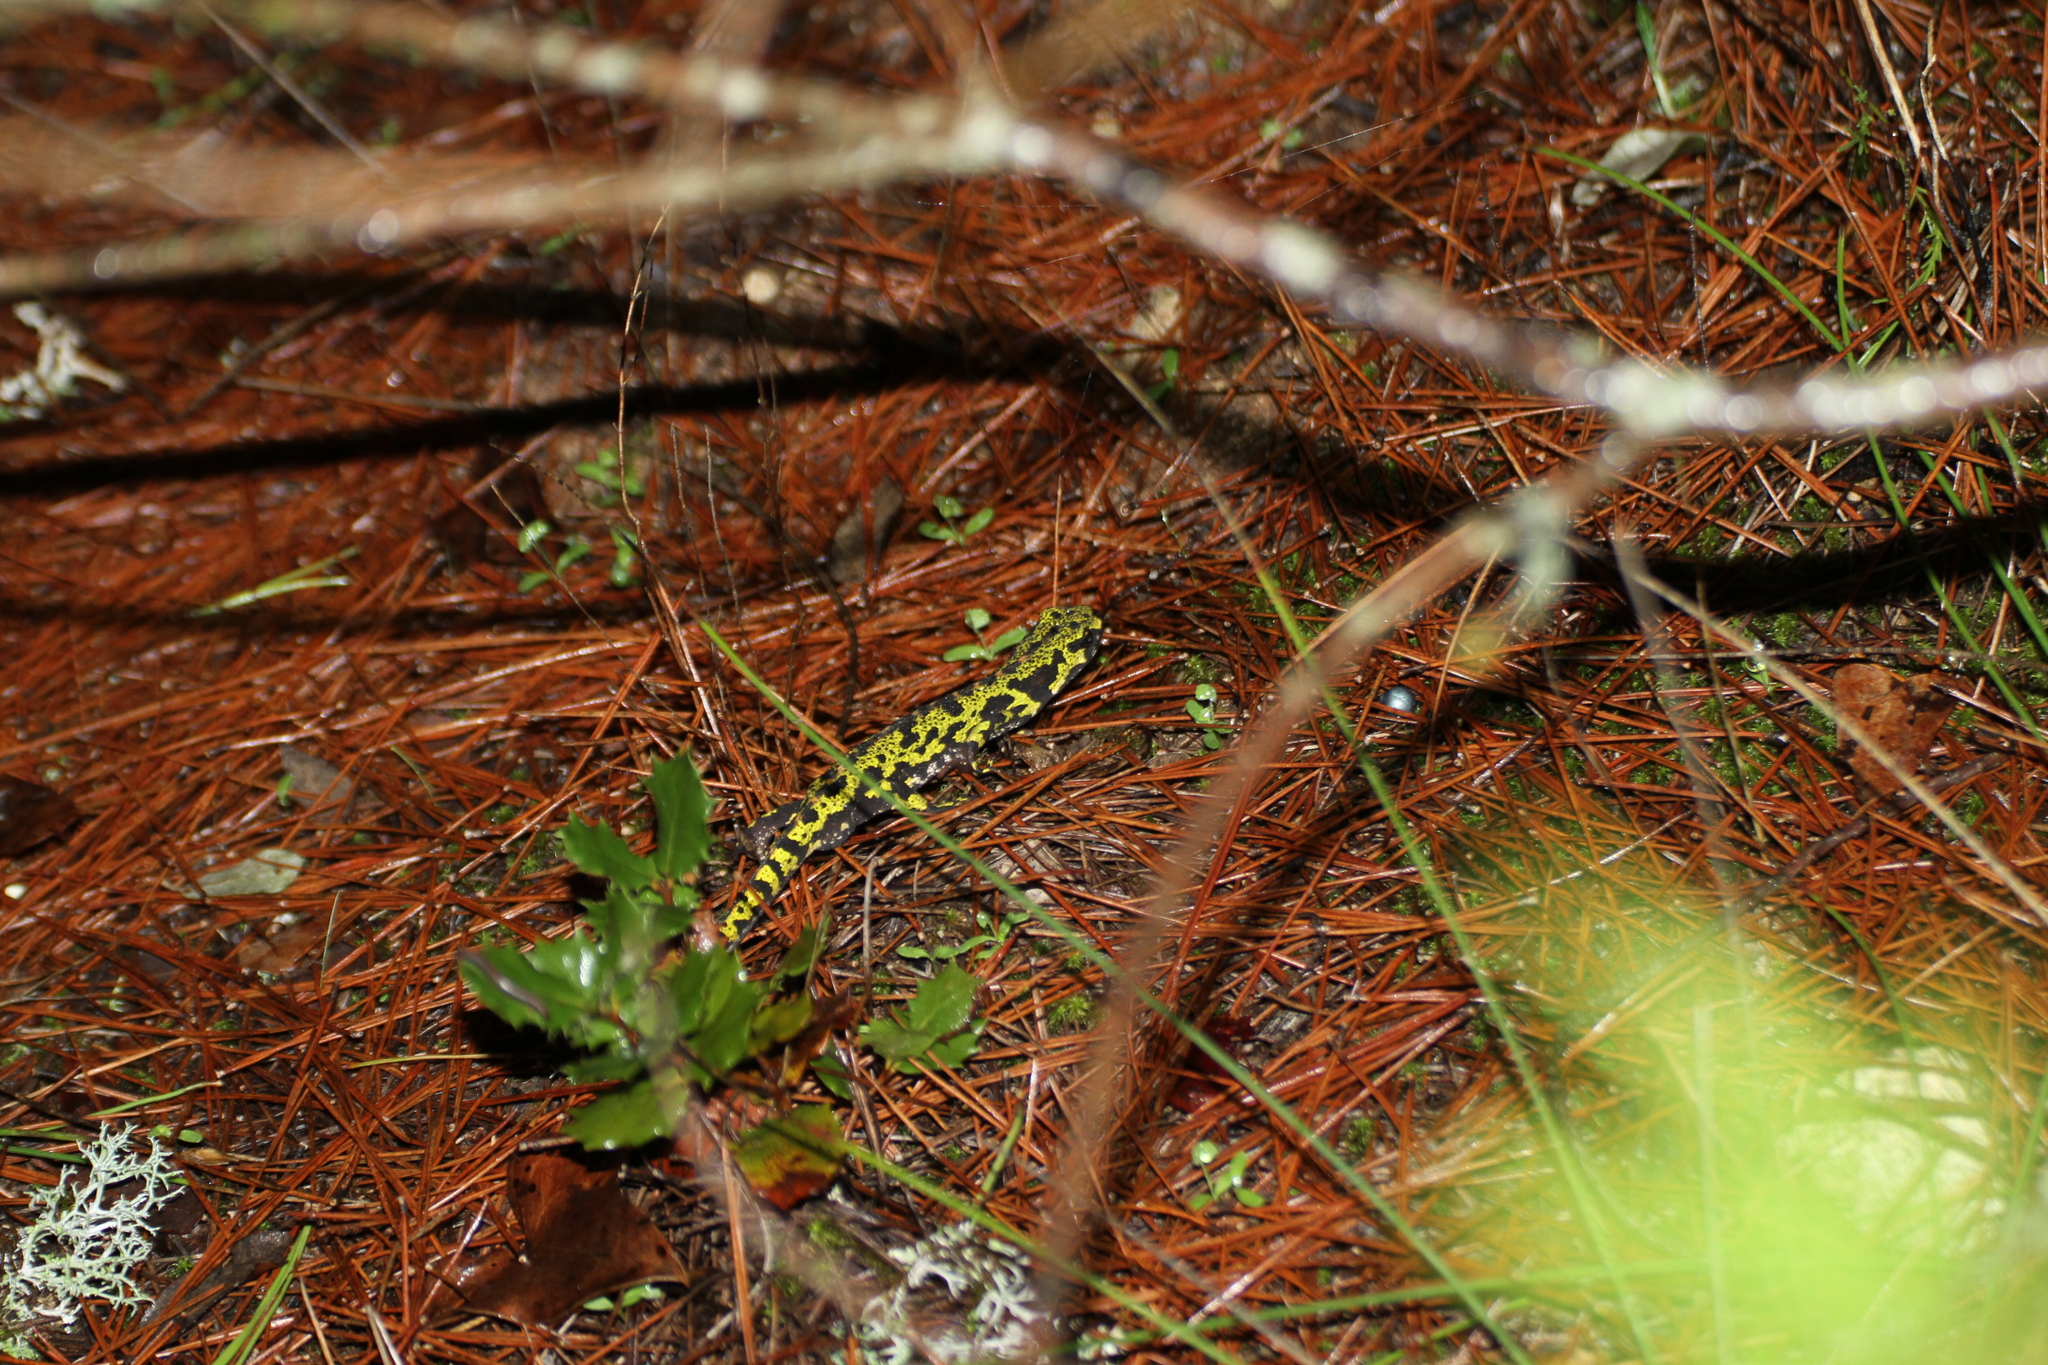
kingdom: Animalia
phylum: Chordata
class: Amphibia
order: Caudata
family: Salamandridae
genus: Triturus
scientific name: Triturus marmoratus
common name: Marbled newt
